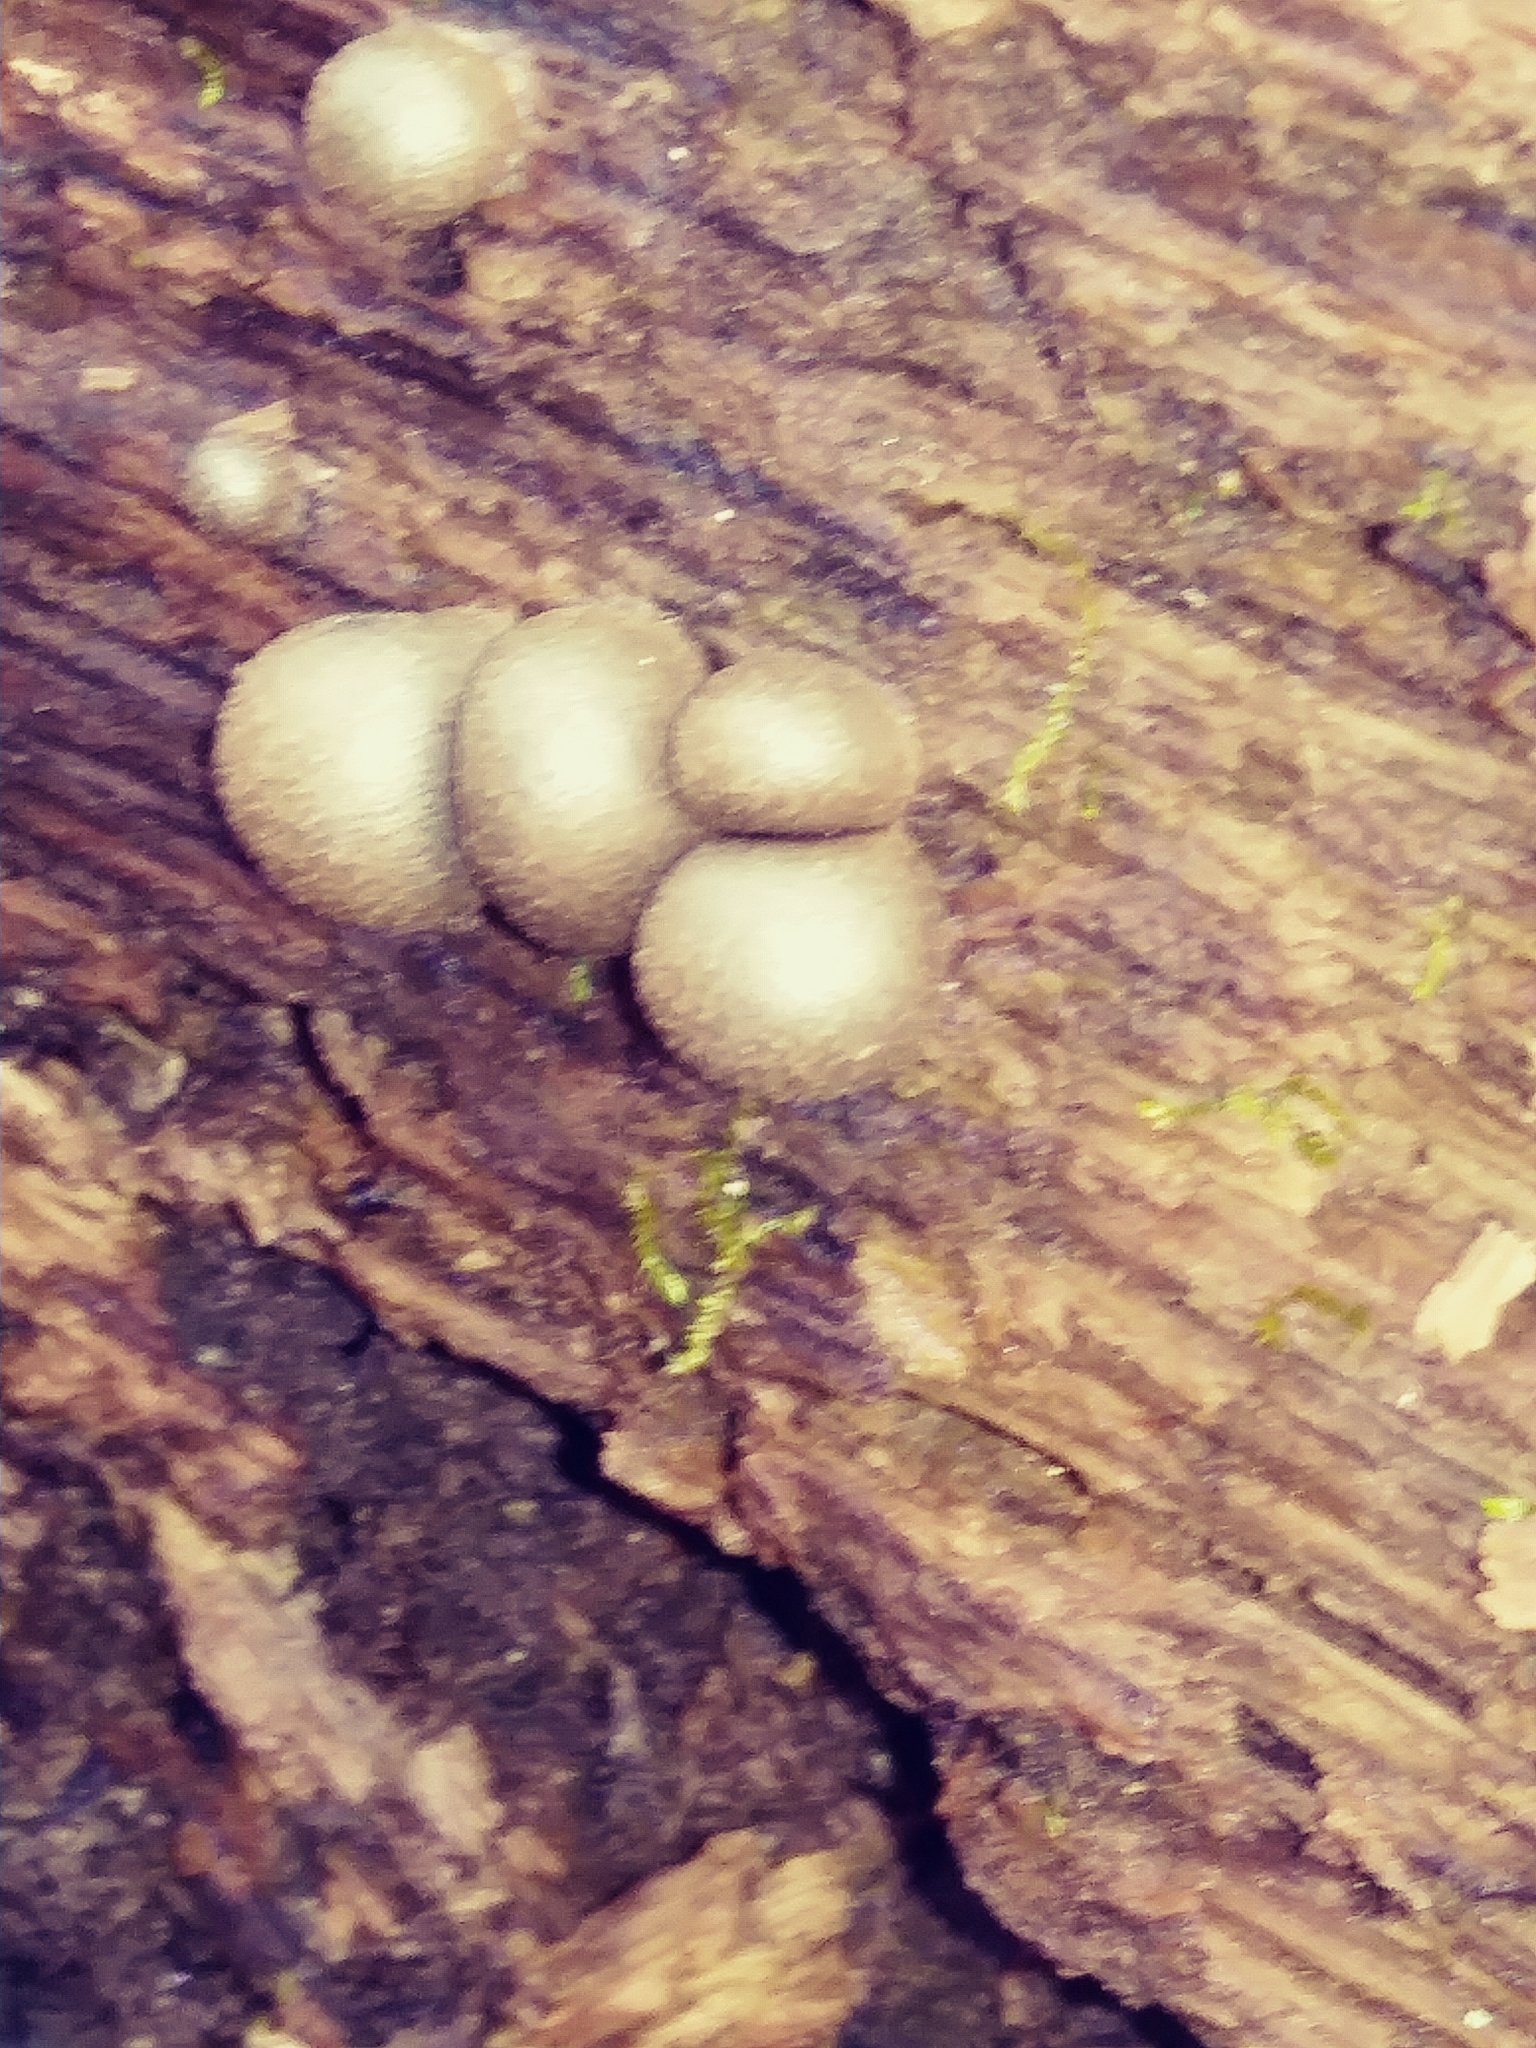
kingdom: Protozoa
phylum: Mycetozoa
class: Myxomycetes
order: Cribrariales
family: Tubiferaceae
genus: Lycogala
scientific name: Lycogala epidendrum
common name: Wolf's milk
